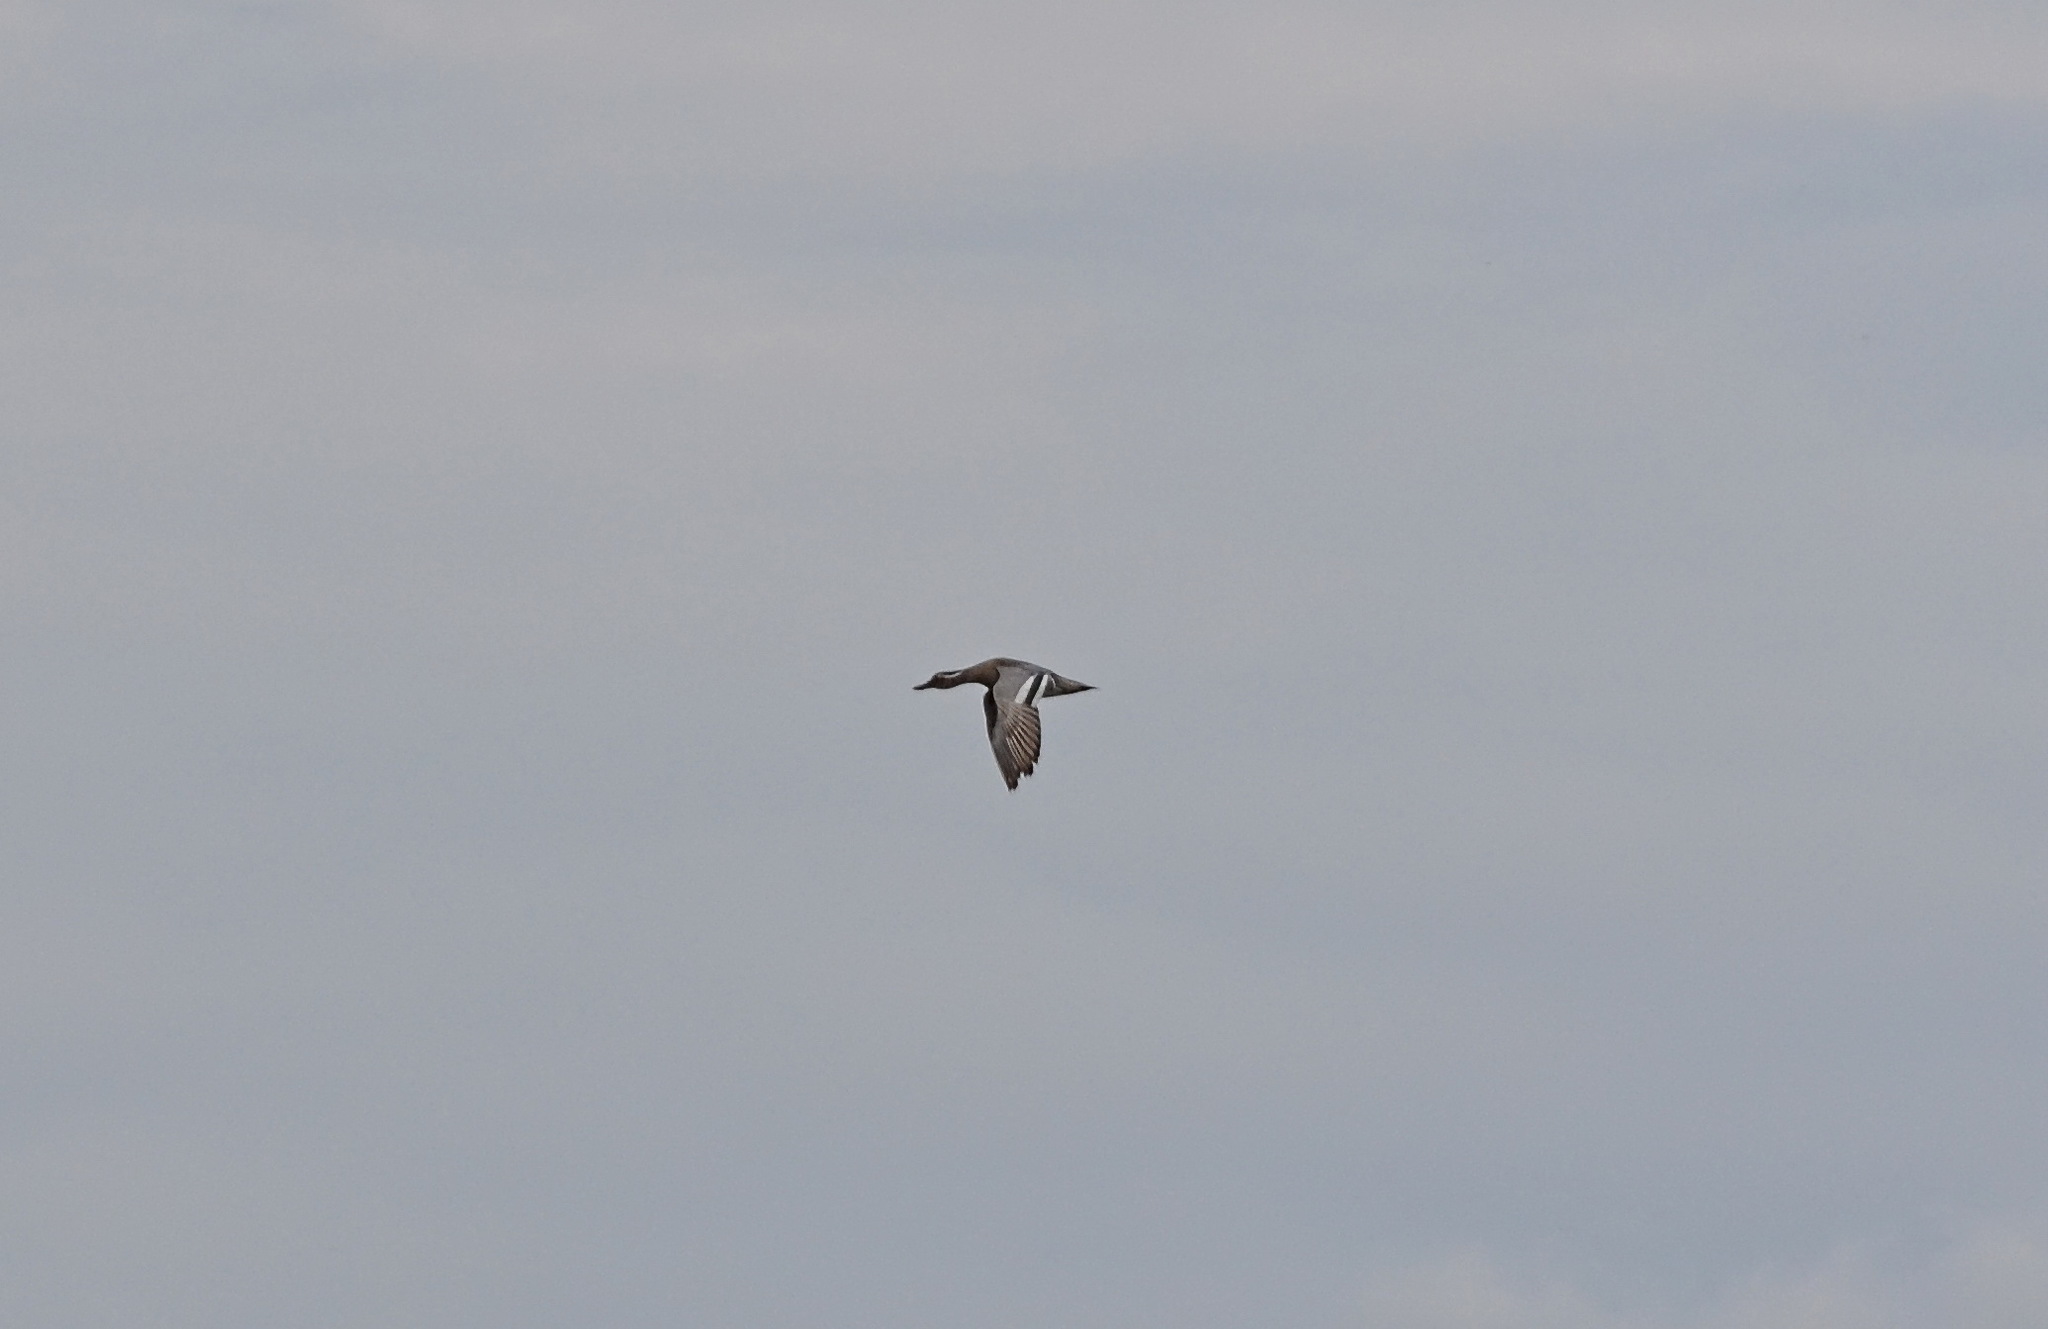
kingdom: Animalia
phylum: Chordata
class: Aves
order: Anseriformes
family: Anatidae
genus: Spatula
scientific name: Spatula querquedula
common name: Garganey
